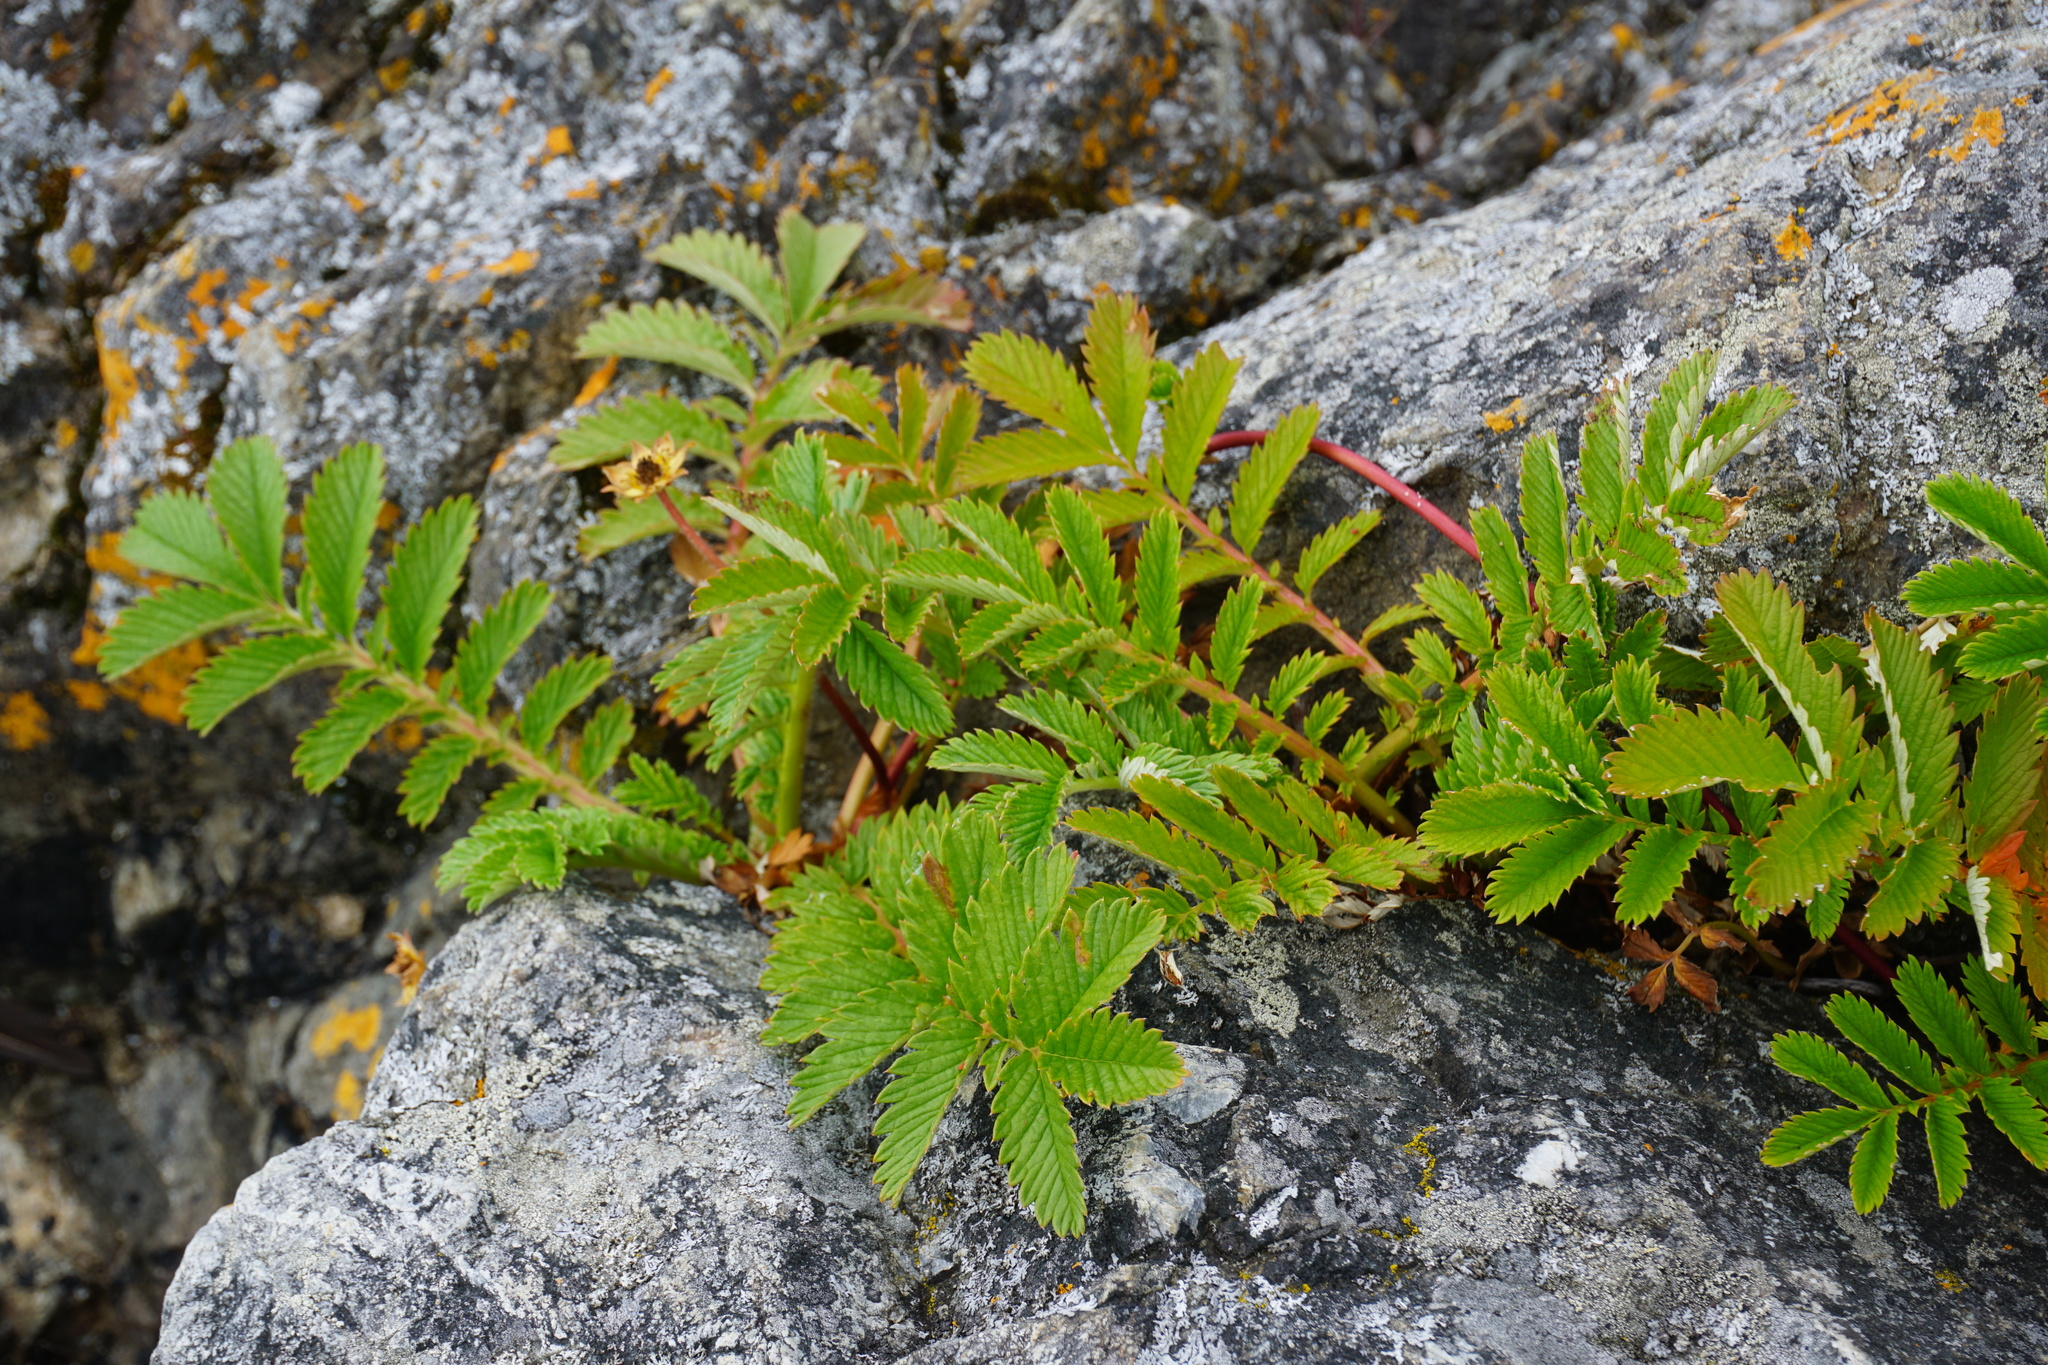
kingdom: Plantae
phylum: Tracheophyta
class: Magnoliopsida
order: Rosales
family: Rosaceae
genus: Argentina
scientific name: Argentina anserina
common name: Common silverweed
